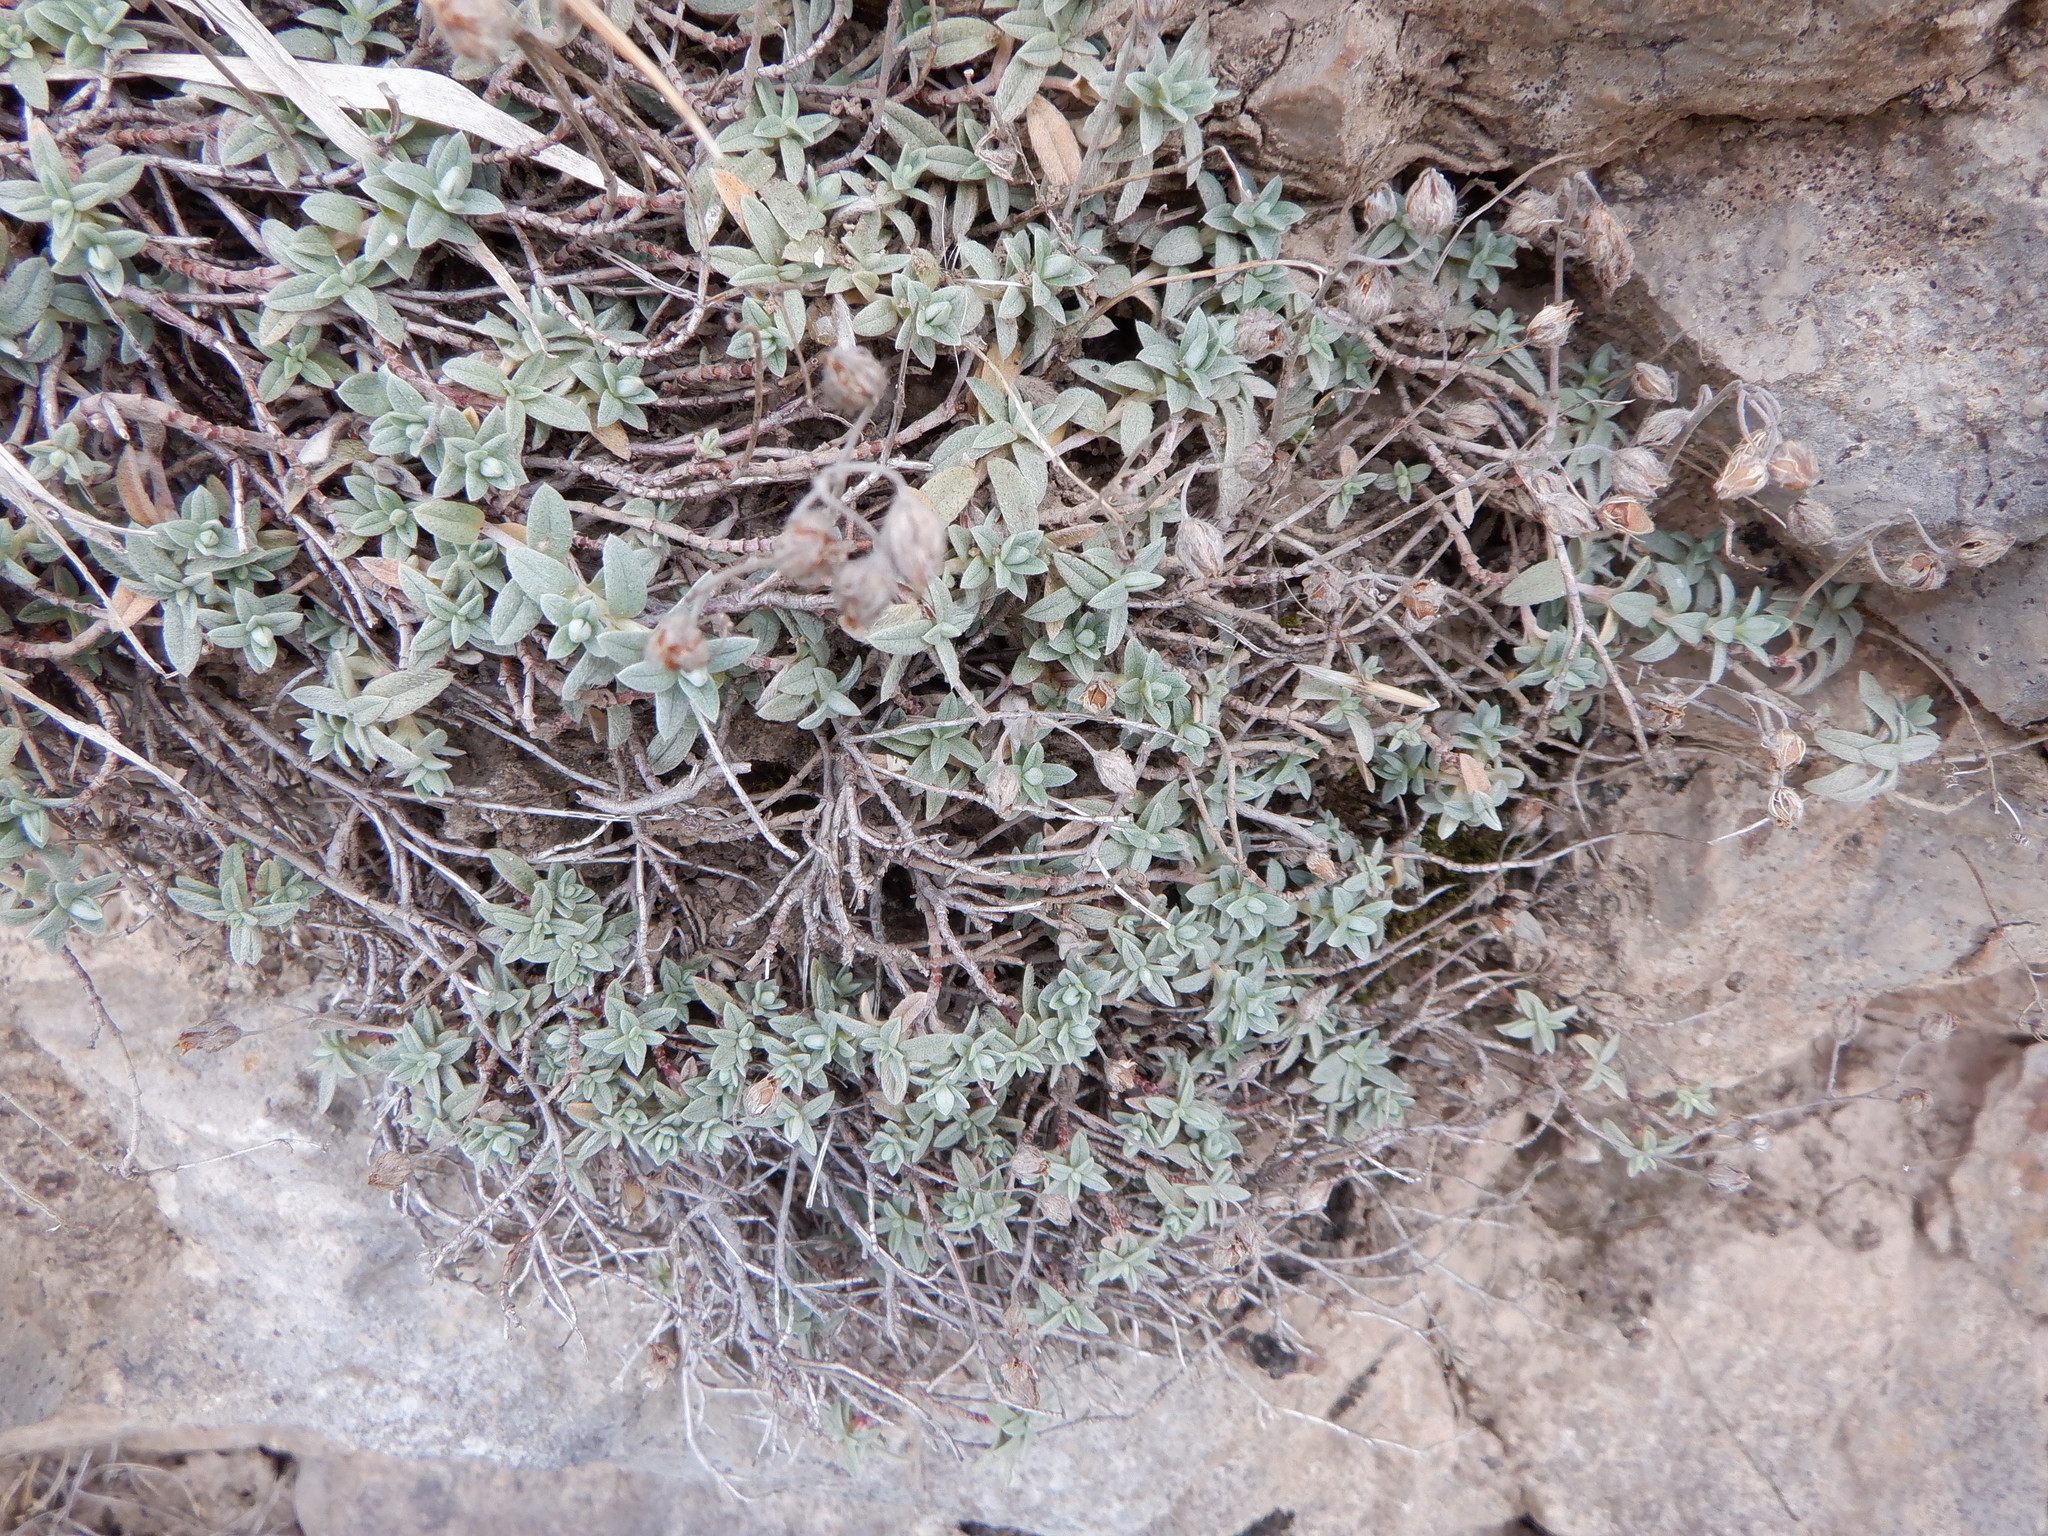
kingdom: Plantae
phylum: Tracheophyta
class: Magnoliopsida
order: Malvales
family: Cistaceae
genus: Helianthemum
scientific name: Helianthemum canum
